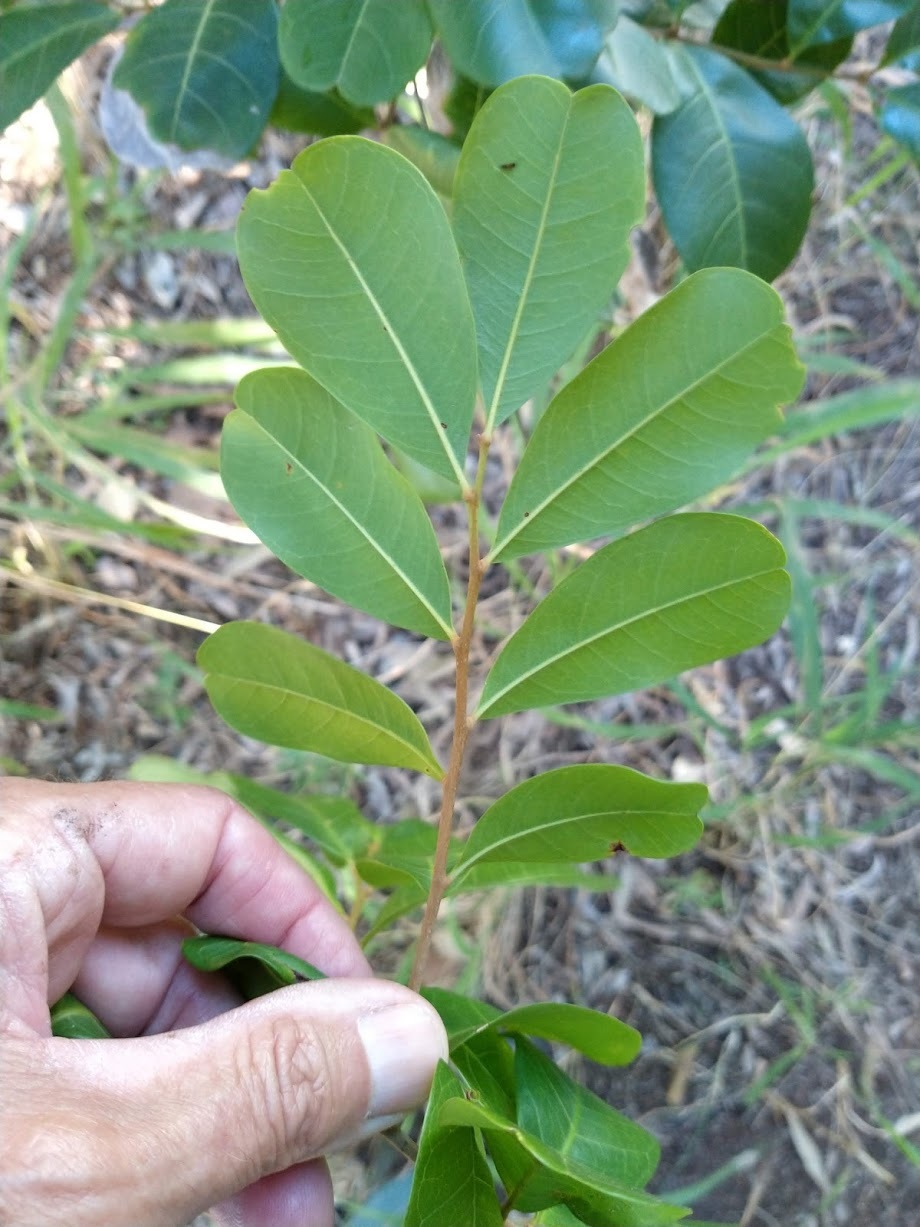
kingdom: Plantae
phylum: Tracheophyta
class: Magnoliopsida
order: Sapindales
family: Sapindaceae
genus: Cupaniopsis
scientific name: Cupaniopsis anacardioides
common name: Carrotwood
